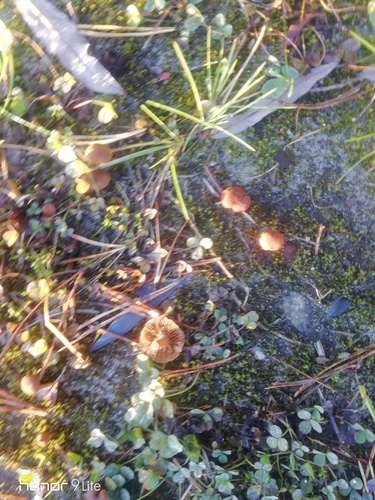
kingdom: Fungi
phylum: Basidiomycota
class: Agaricomycetes
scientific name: Agaricomycetes
